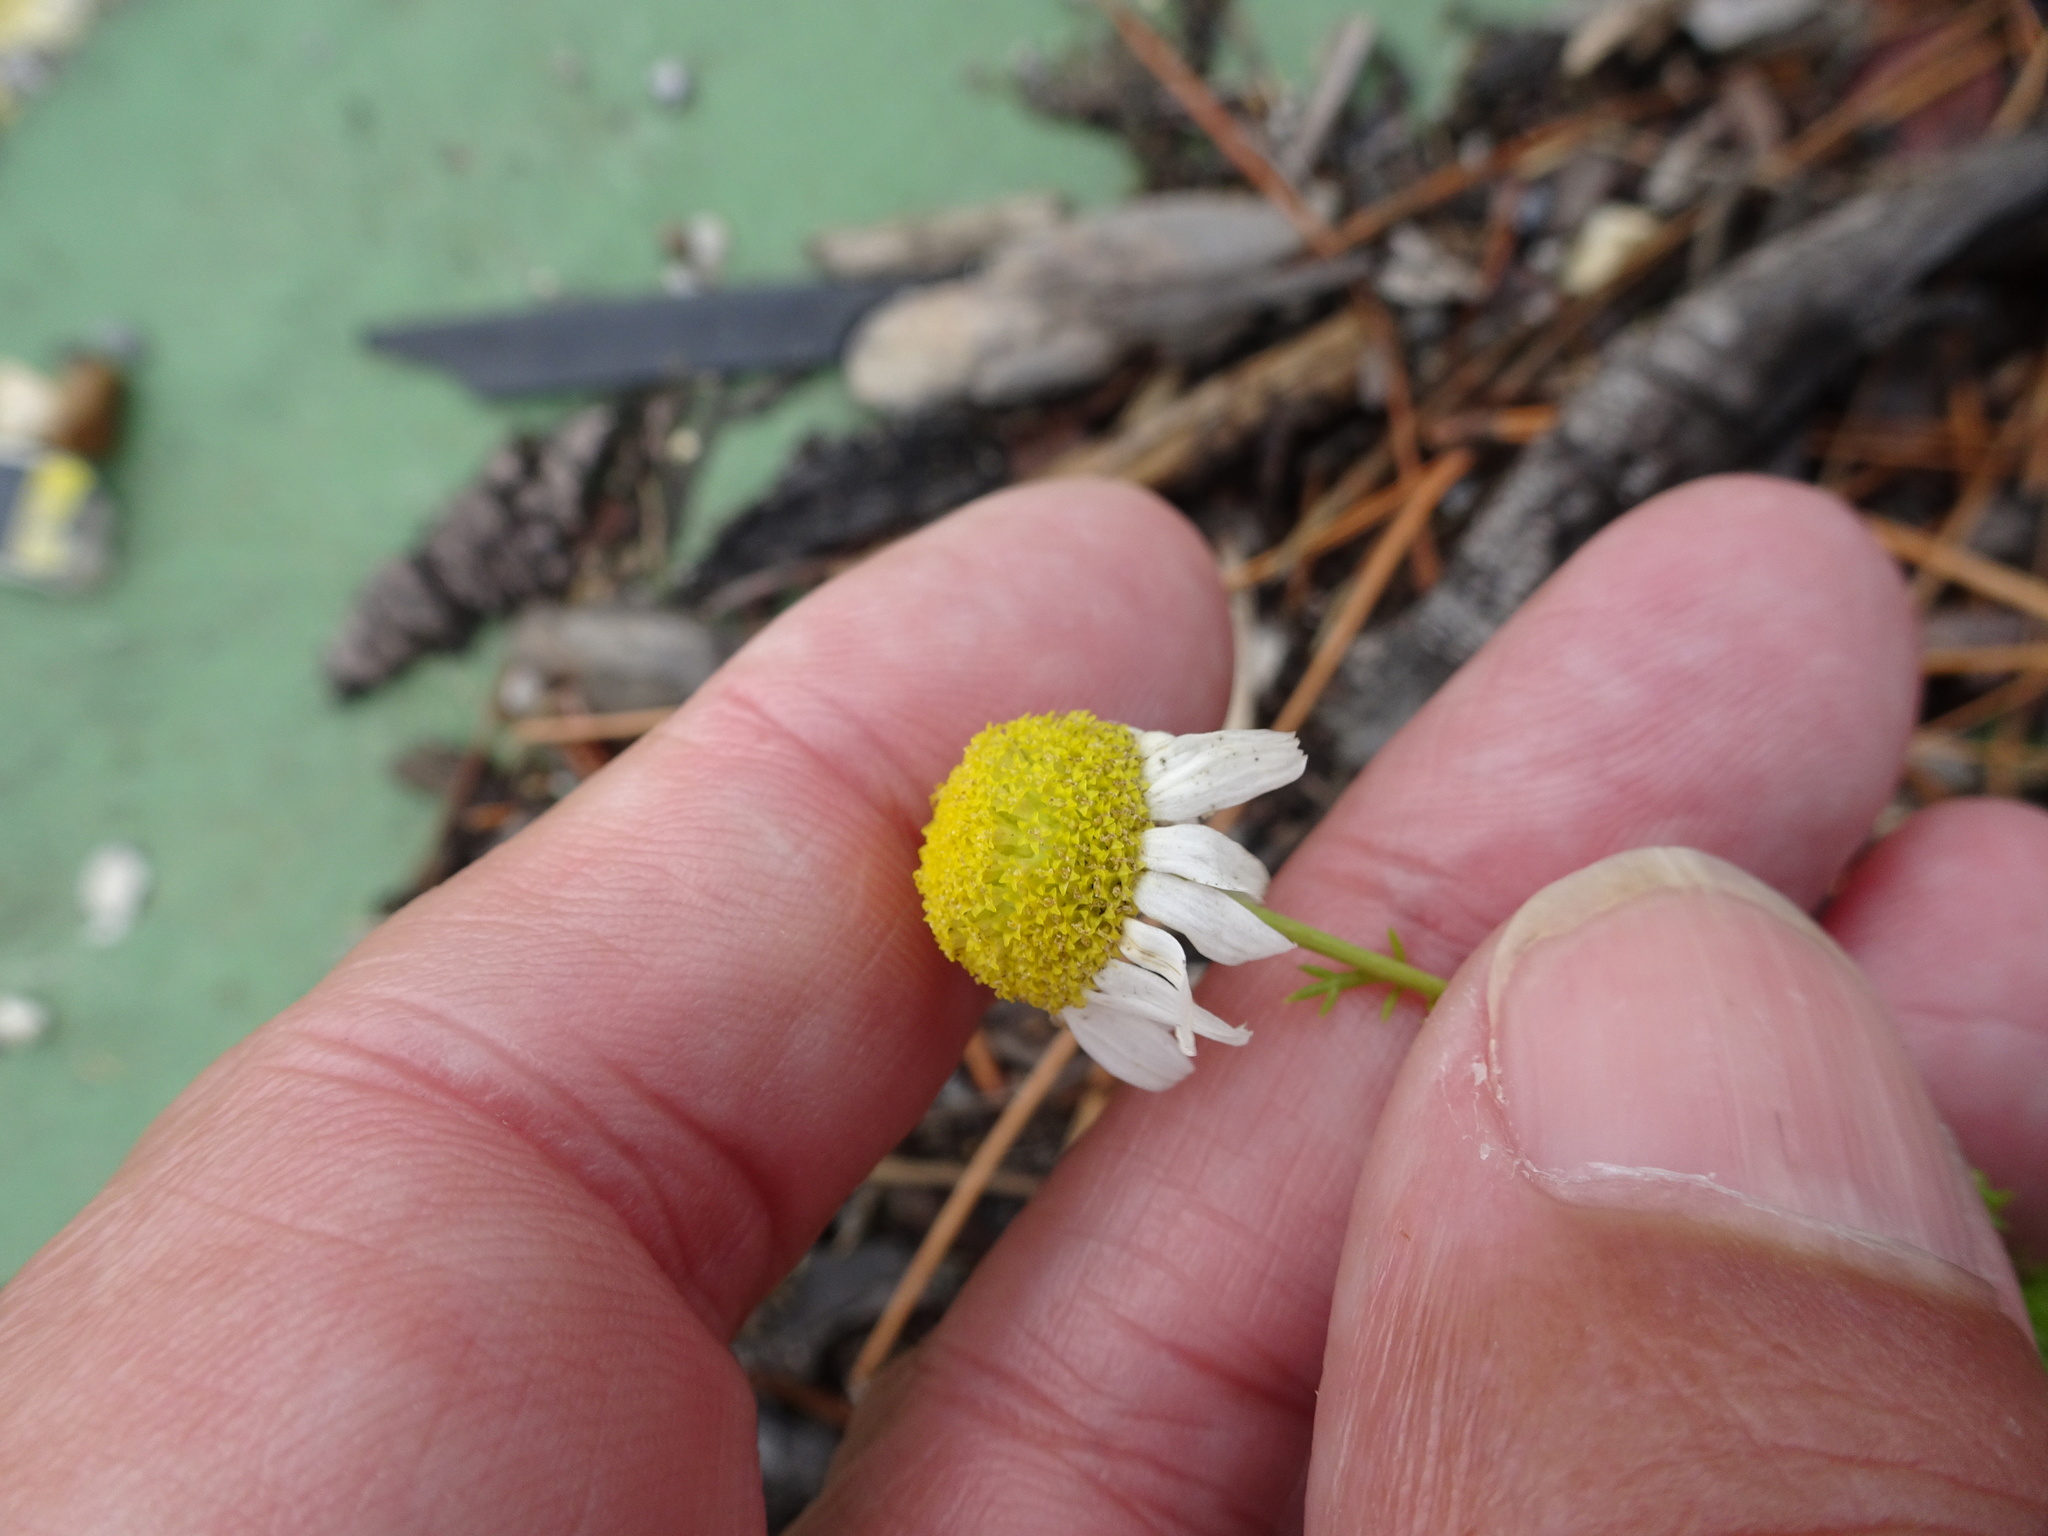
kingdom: Plantae
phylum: Tracheophyta
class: Magnoliopsida
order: Asterales
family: Asteraceae
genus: Tripleurospermum
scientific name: Tripleurospermum inodorum
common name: Scentless mayweed
